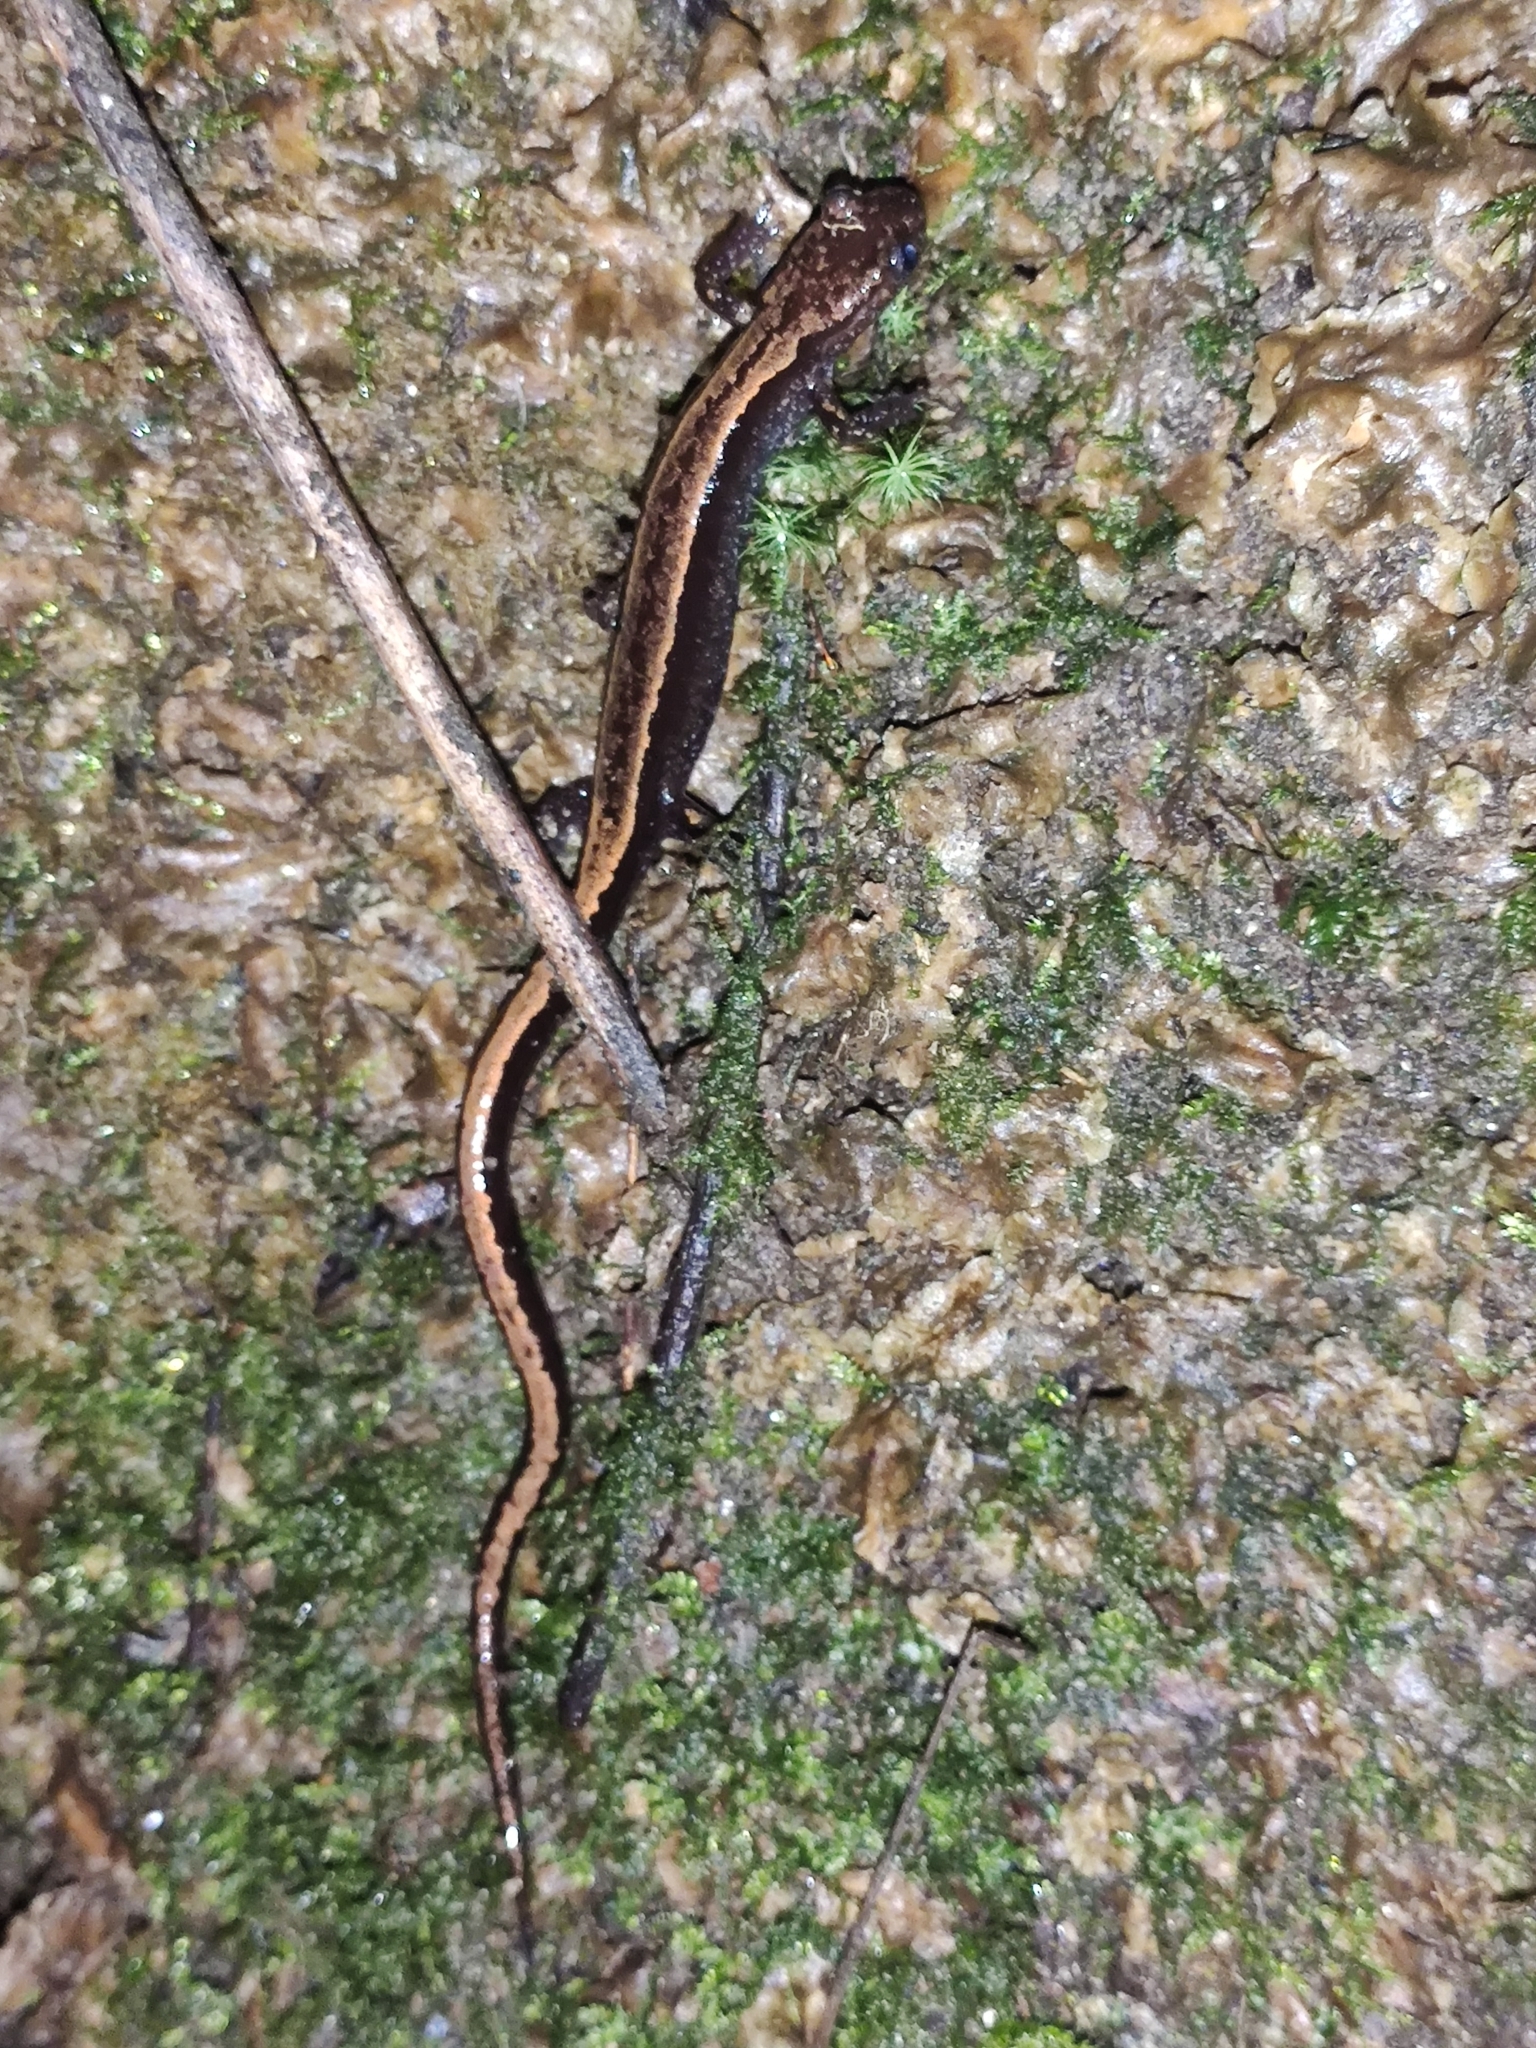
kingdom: Animalia
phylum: Chordata
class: Amphibia
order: Caudata
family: Salamandridae
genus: Chioglossa
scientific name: Chioglossa lusitanica
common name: Gold-striped salamander
